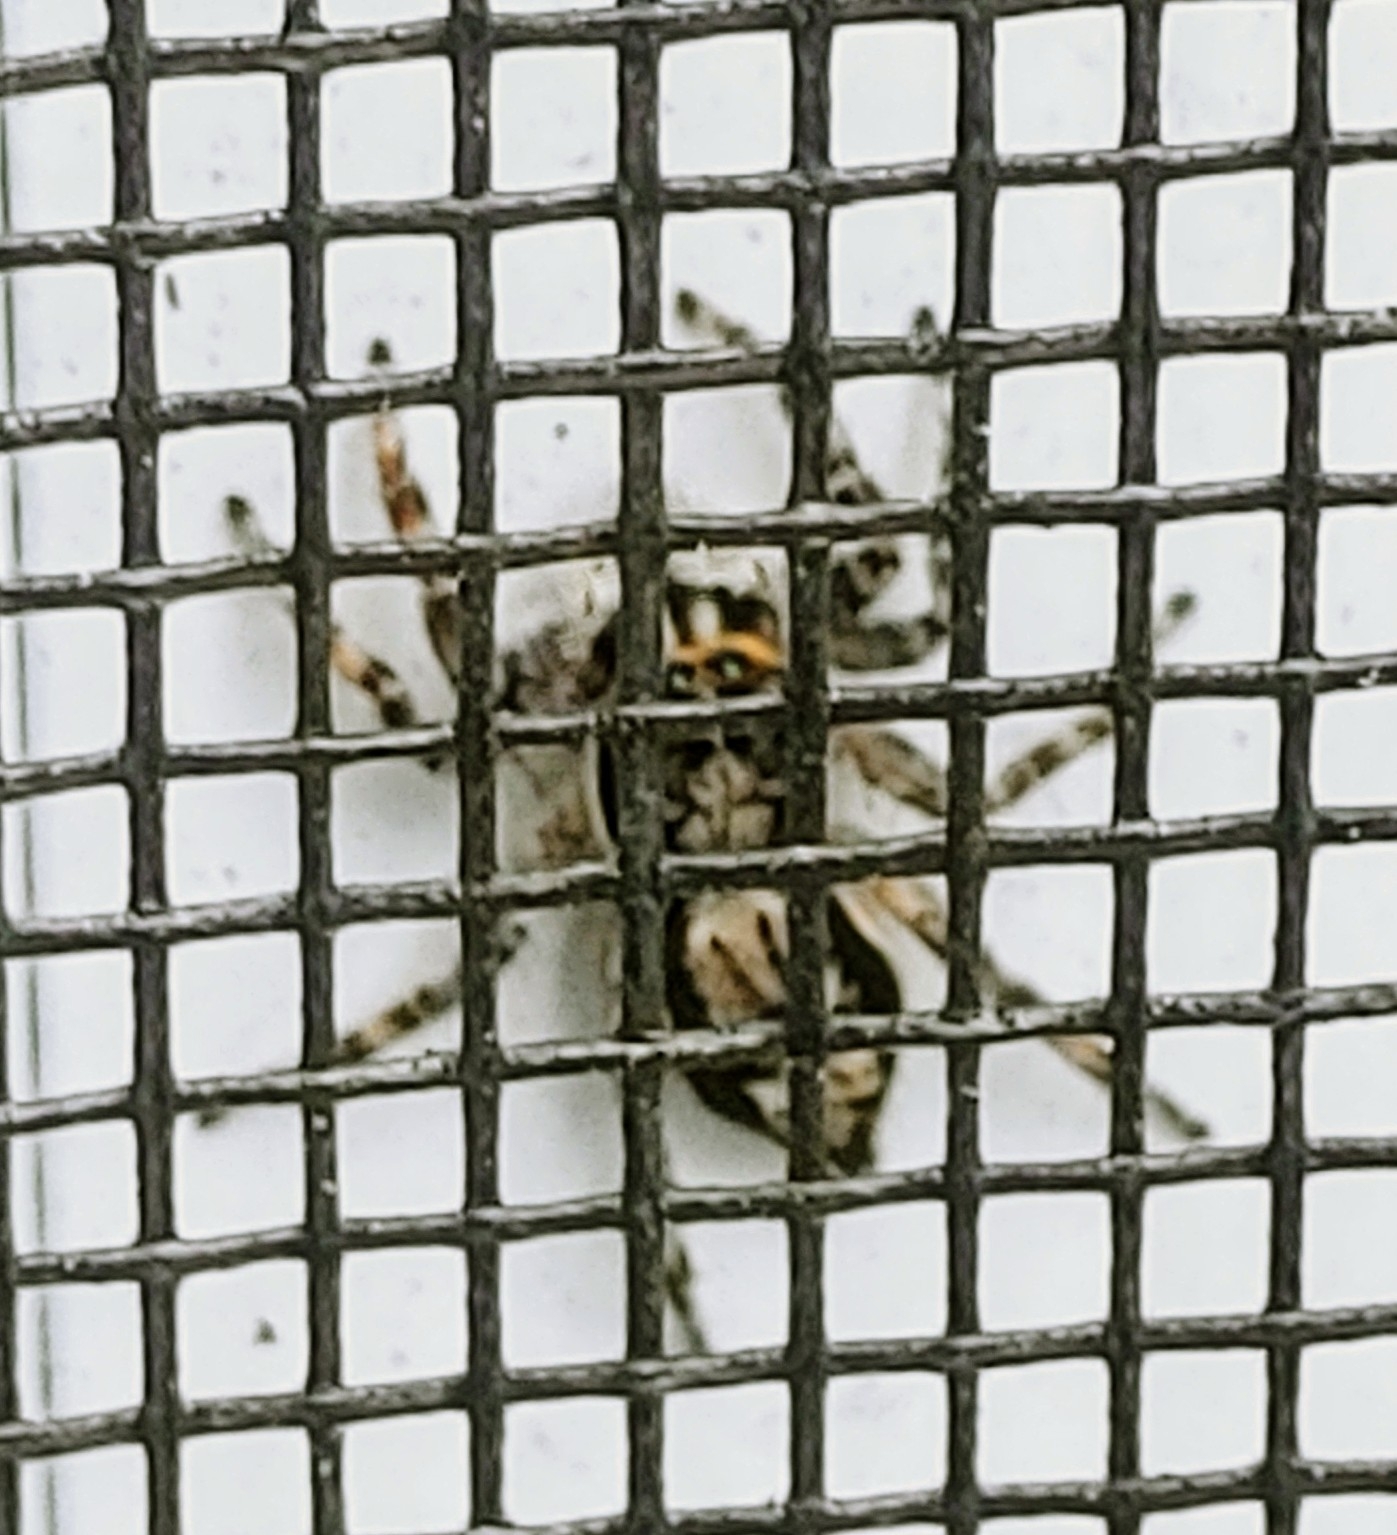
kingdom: Animalia
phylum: Arthropoda
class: Arachnida
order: Araneae
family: Salticidae
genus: Menemerus
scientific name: Menemerus bivittatus
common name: Gray wall jumper
